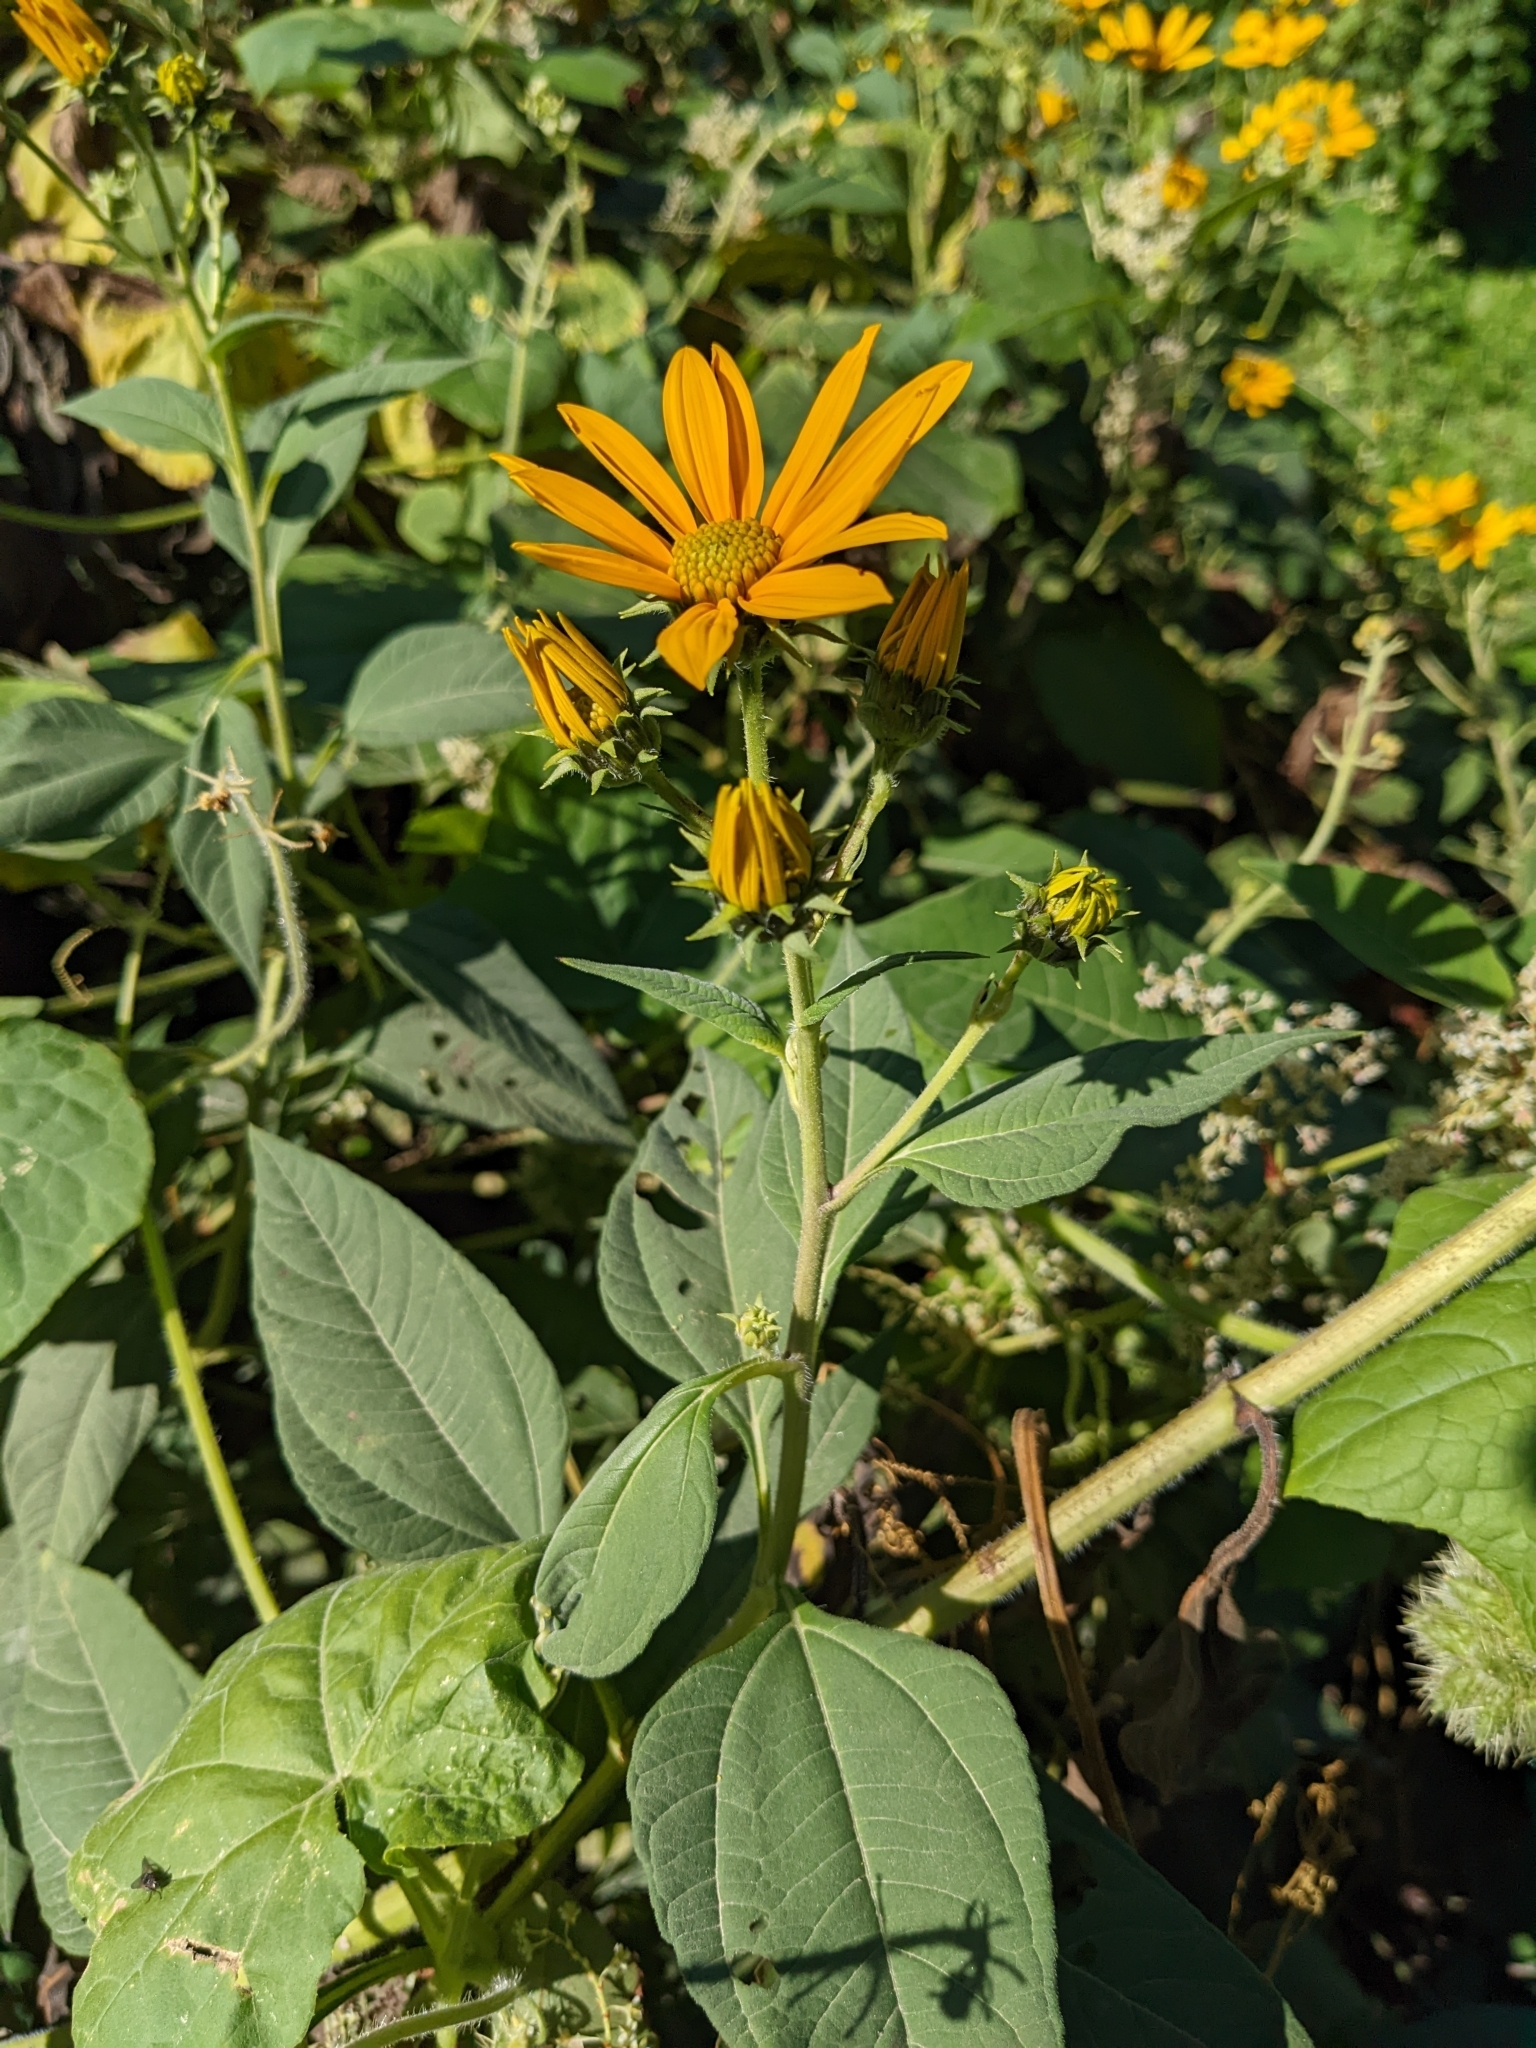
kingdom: Plantae
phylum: Tracheophyta
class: Magnoliopsida
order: Asterales
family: Asteraceae
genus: Helianthus
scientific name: Helianthus tuberosus
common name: Jerusalem artichoke
